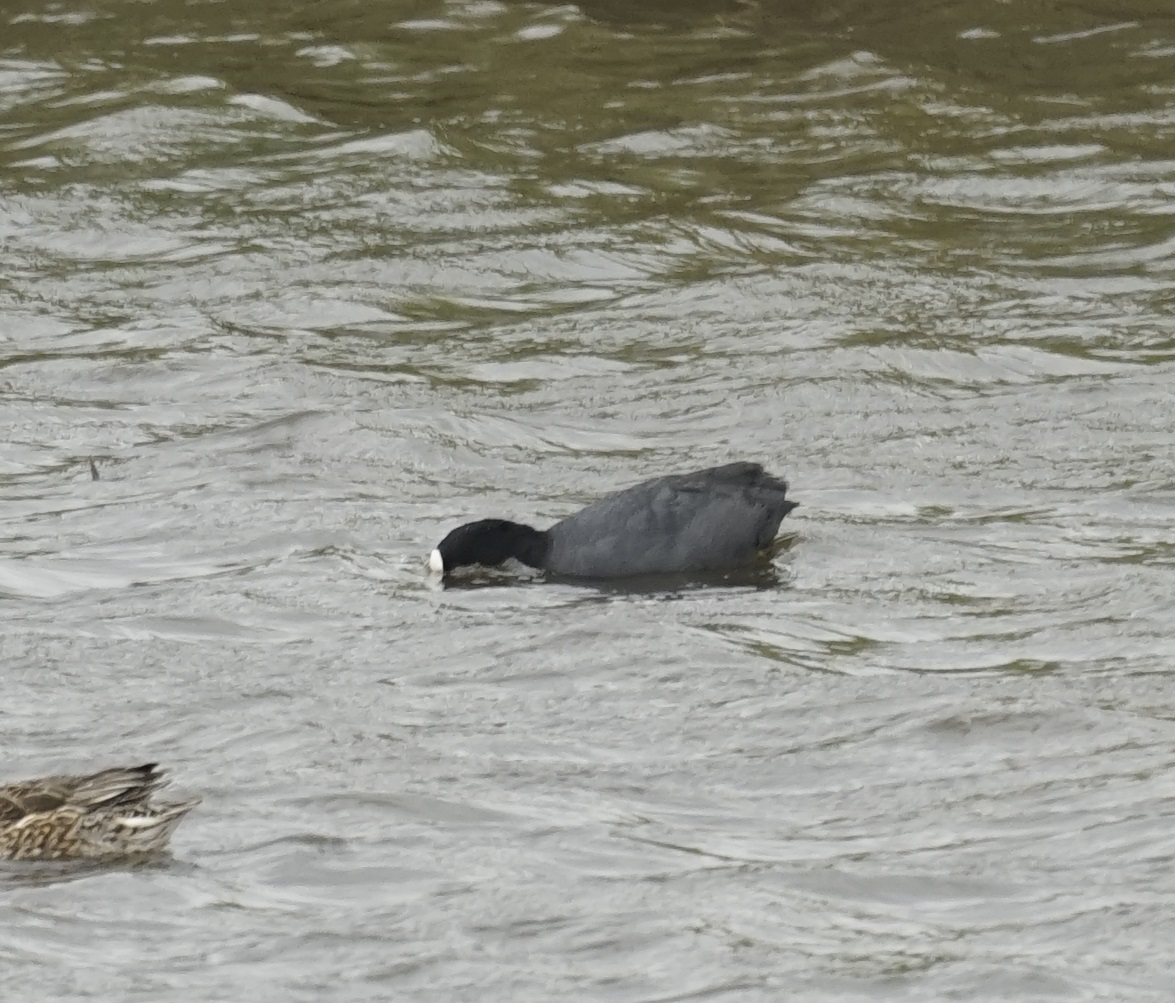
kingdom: Animalia
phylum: Chordata
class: Aves
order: Gruiformes
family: Rallidae
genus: Fulica
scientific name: Fulica atra
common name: Eurasian coot
